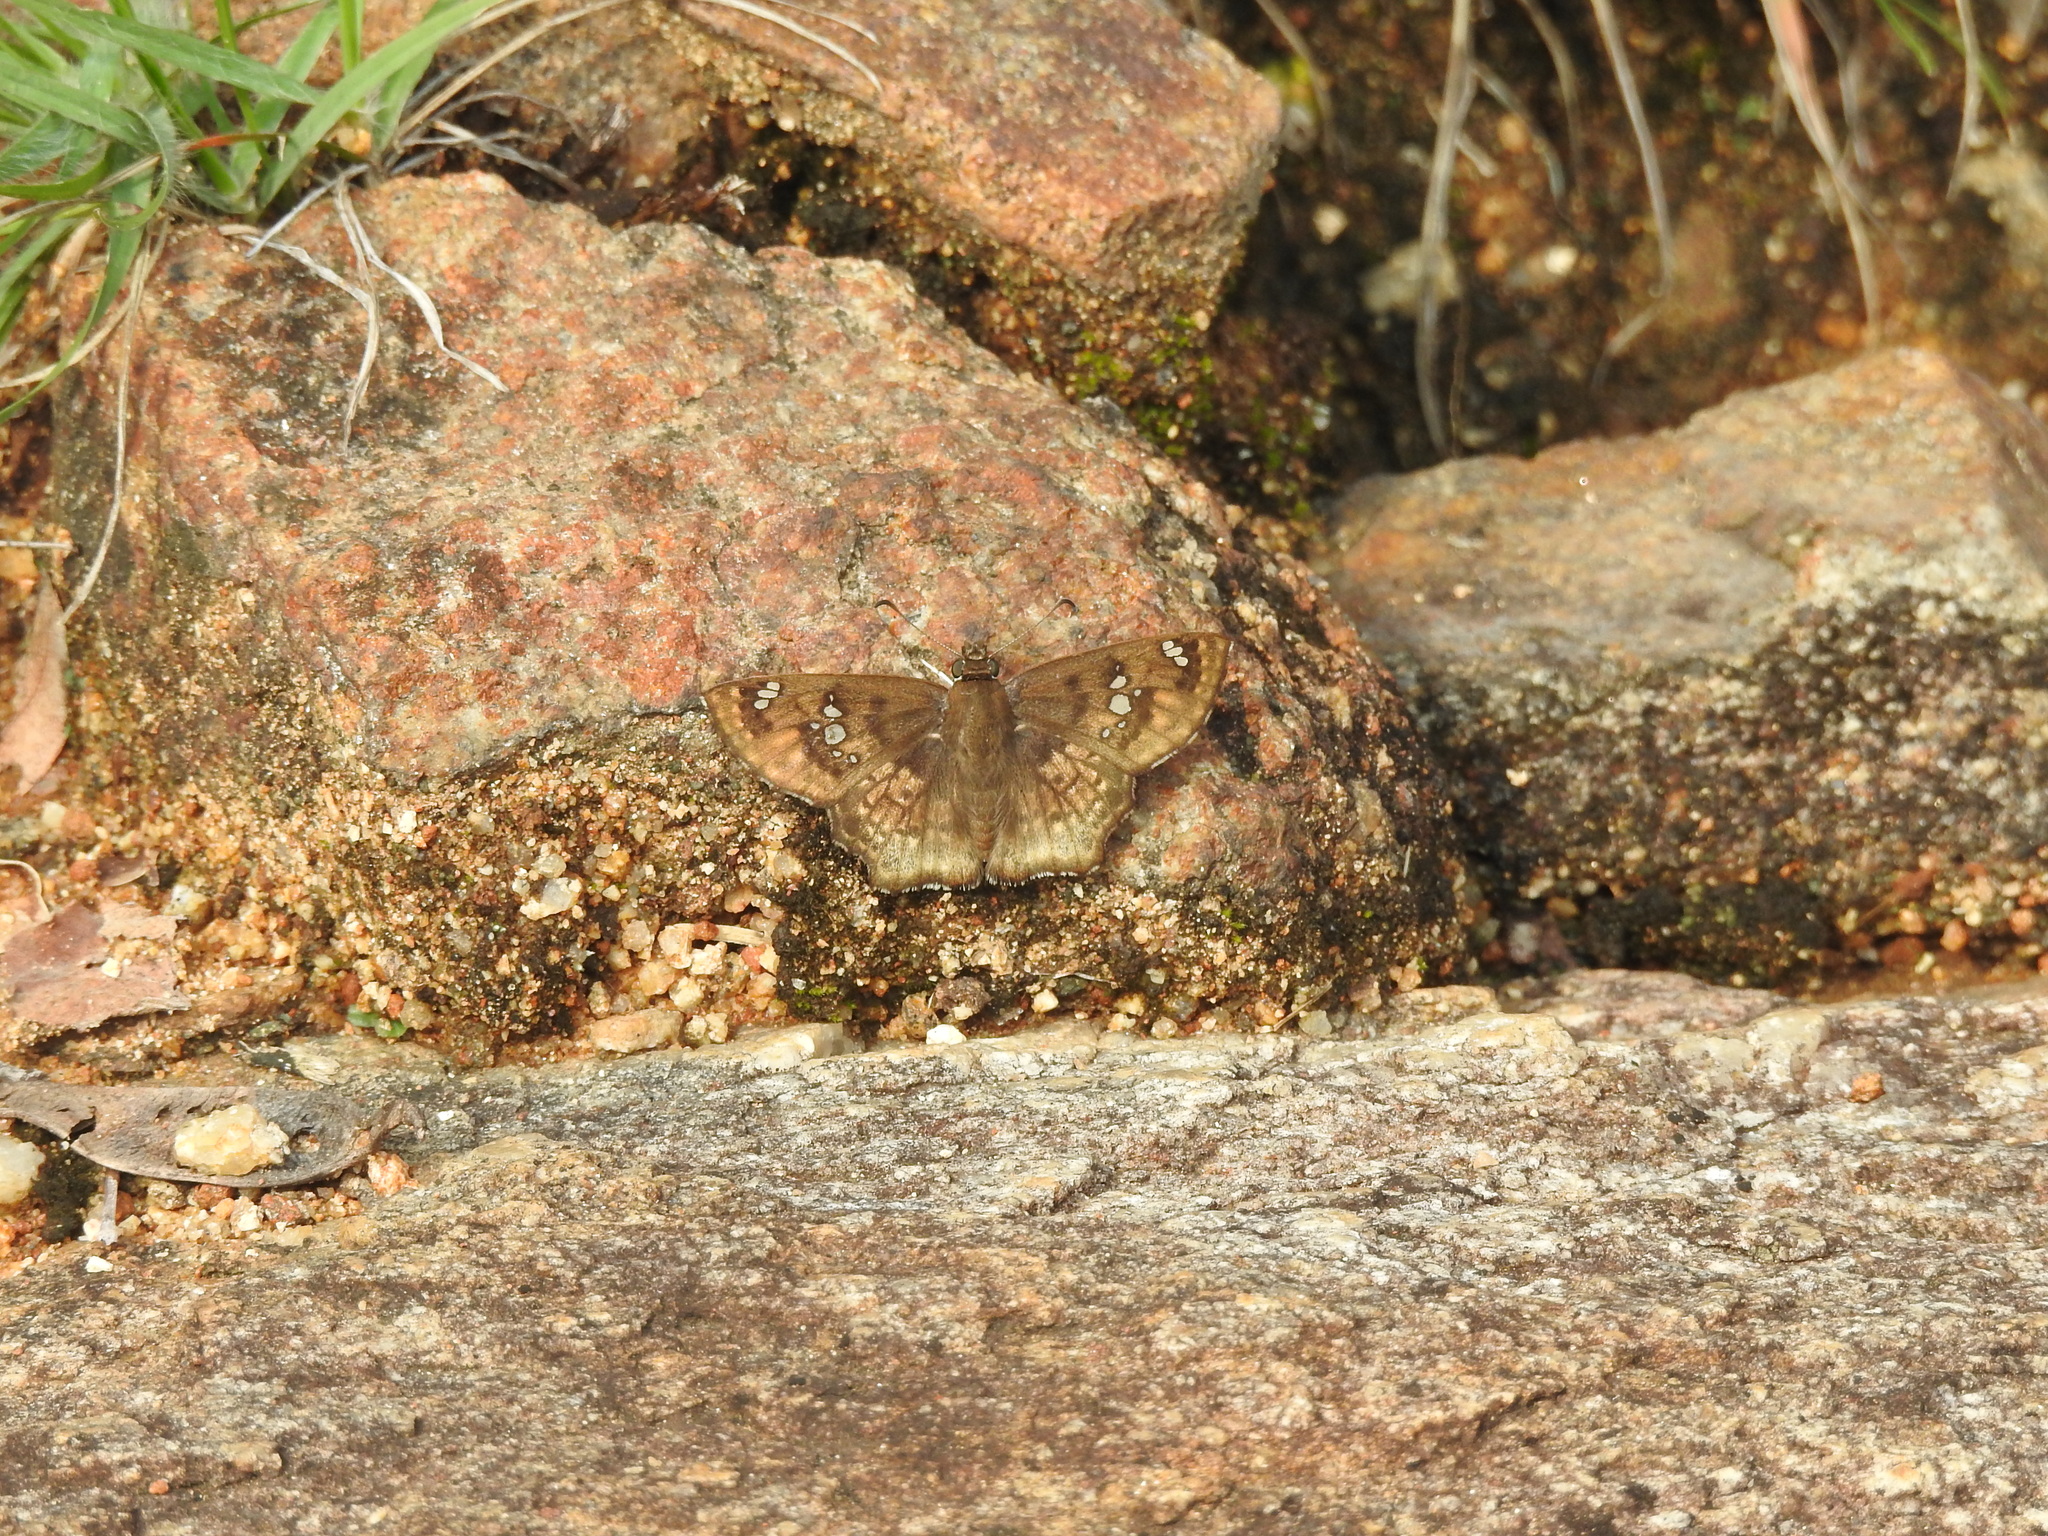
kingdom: Animalia
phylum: Arthropoda
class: Insecta
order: Lepidoptera
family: Hesperiidae
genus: Caprona
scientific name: Caprona ransonnettii
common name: Golden angle
